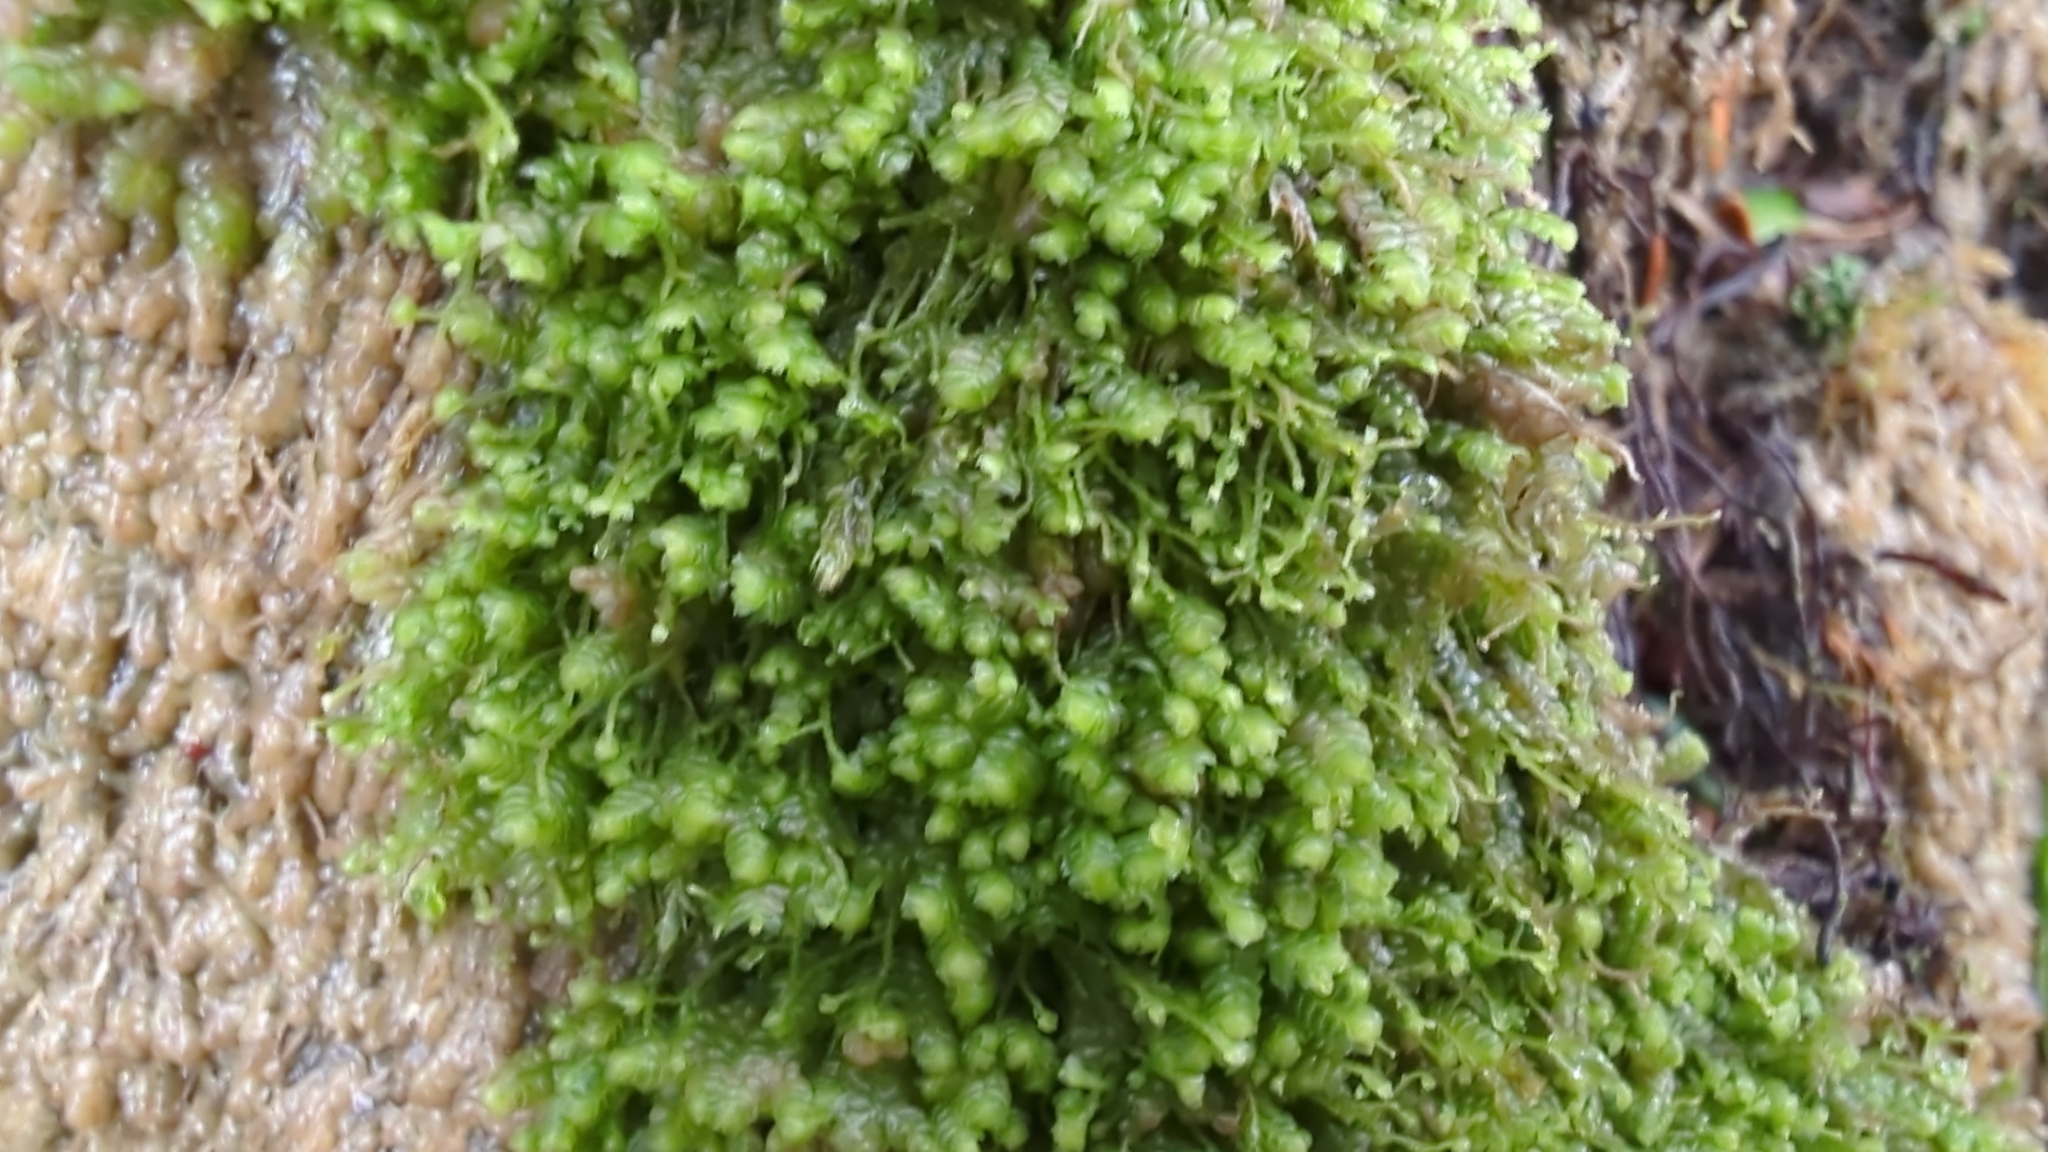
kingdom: Plantae
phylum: Marchantiophyta
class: Jungermanniopsida
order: Jungermanniales
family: Lepidoziaceae
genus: Bazzania
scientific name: Bazzania denudata
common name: Naked whipwort
